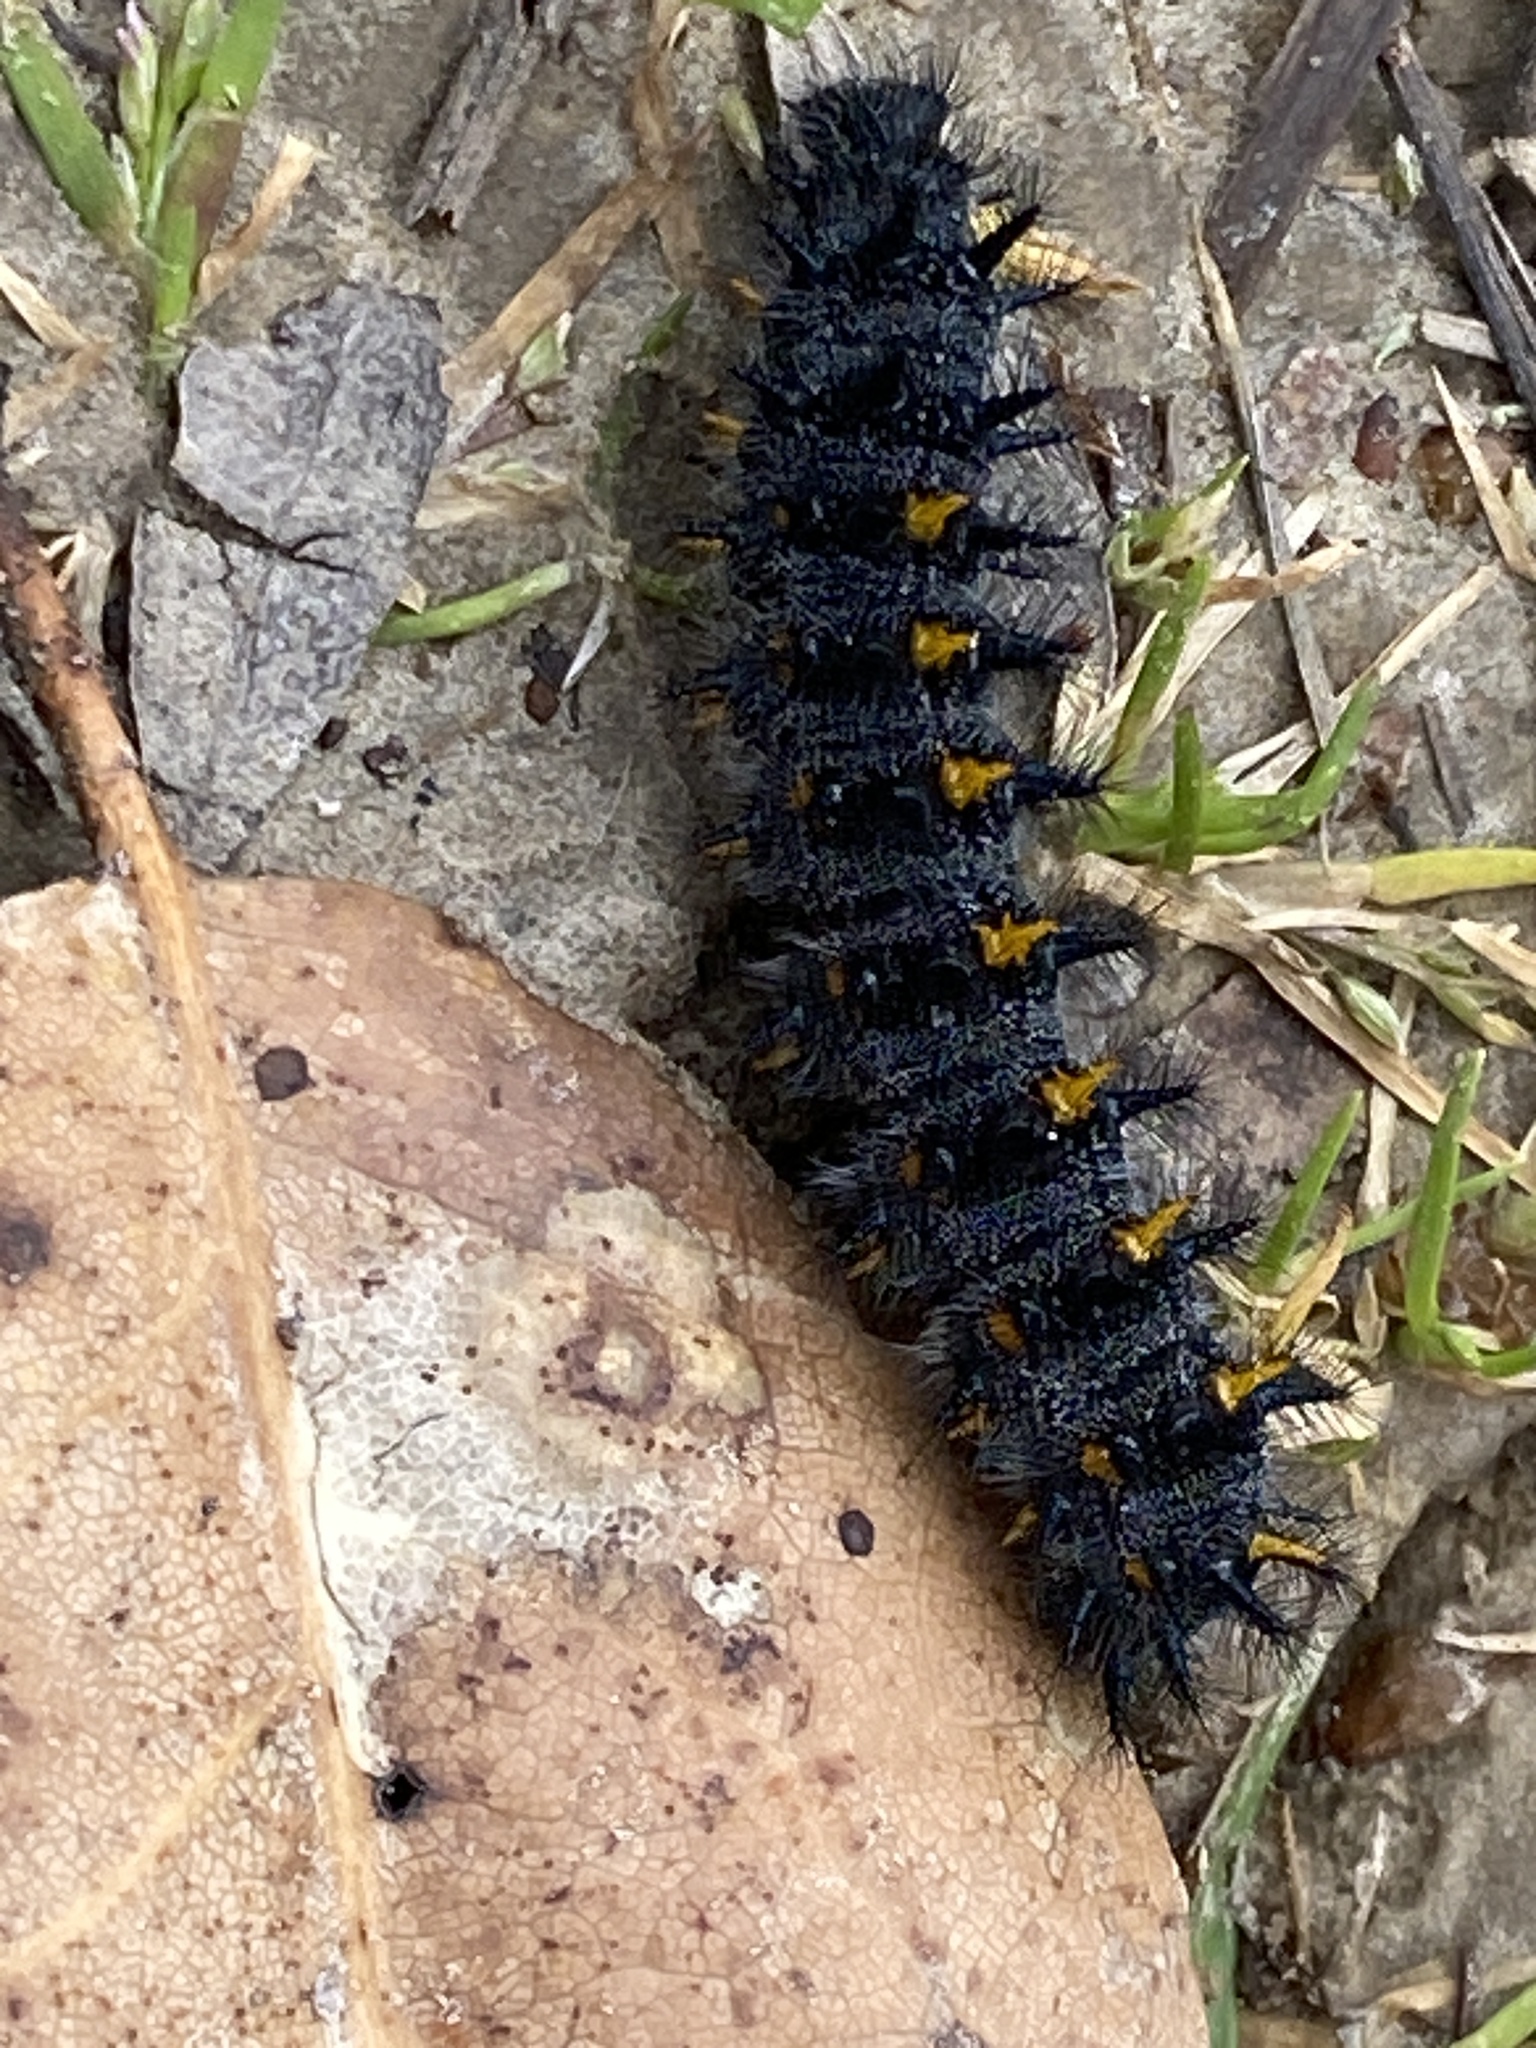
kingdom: Animalia
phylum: Arthropoda
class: Insecta
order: Lepidoptera
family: Nymphalidae
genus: Occidryas
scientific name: Occidryas chalcedona
